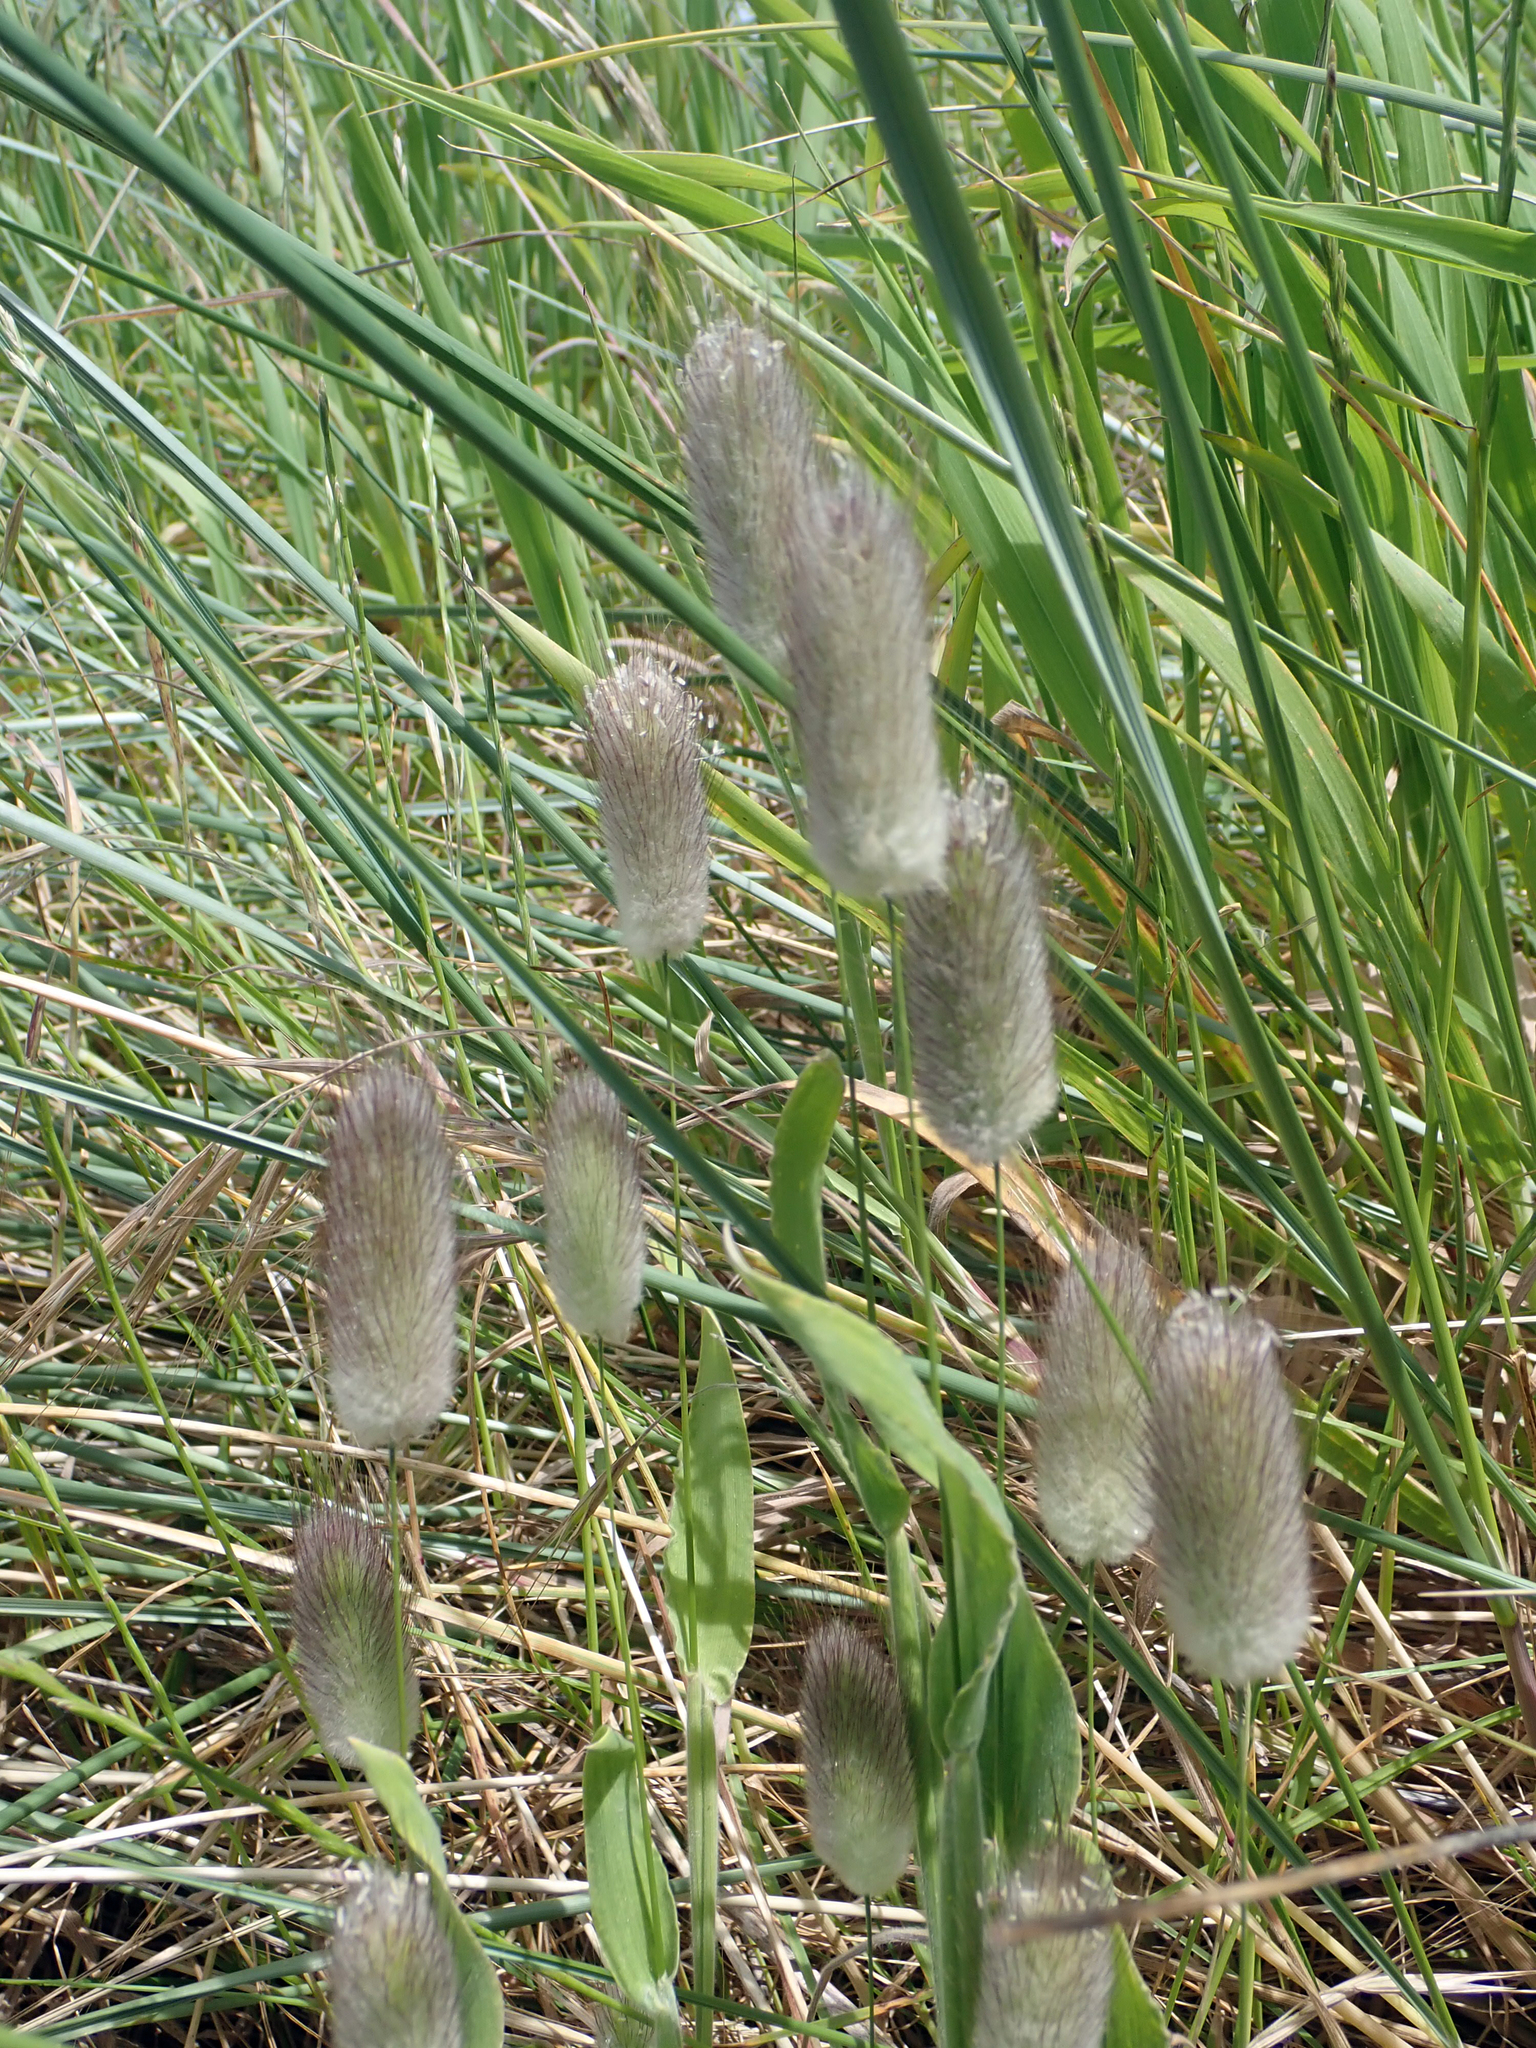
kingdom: Plantae
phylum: Tracheophyta
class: Liliopsida
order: Poales
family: Poaceae
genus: Lagurus
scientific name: Lagurus ovatus
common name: Hare's-tail
